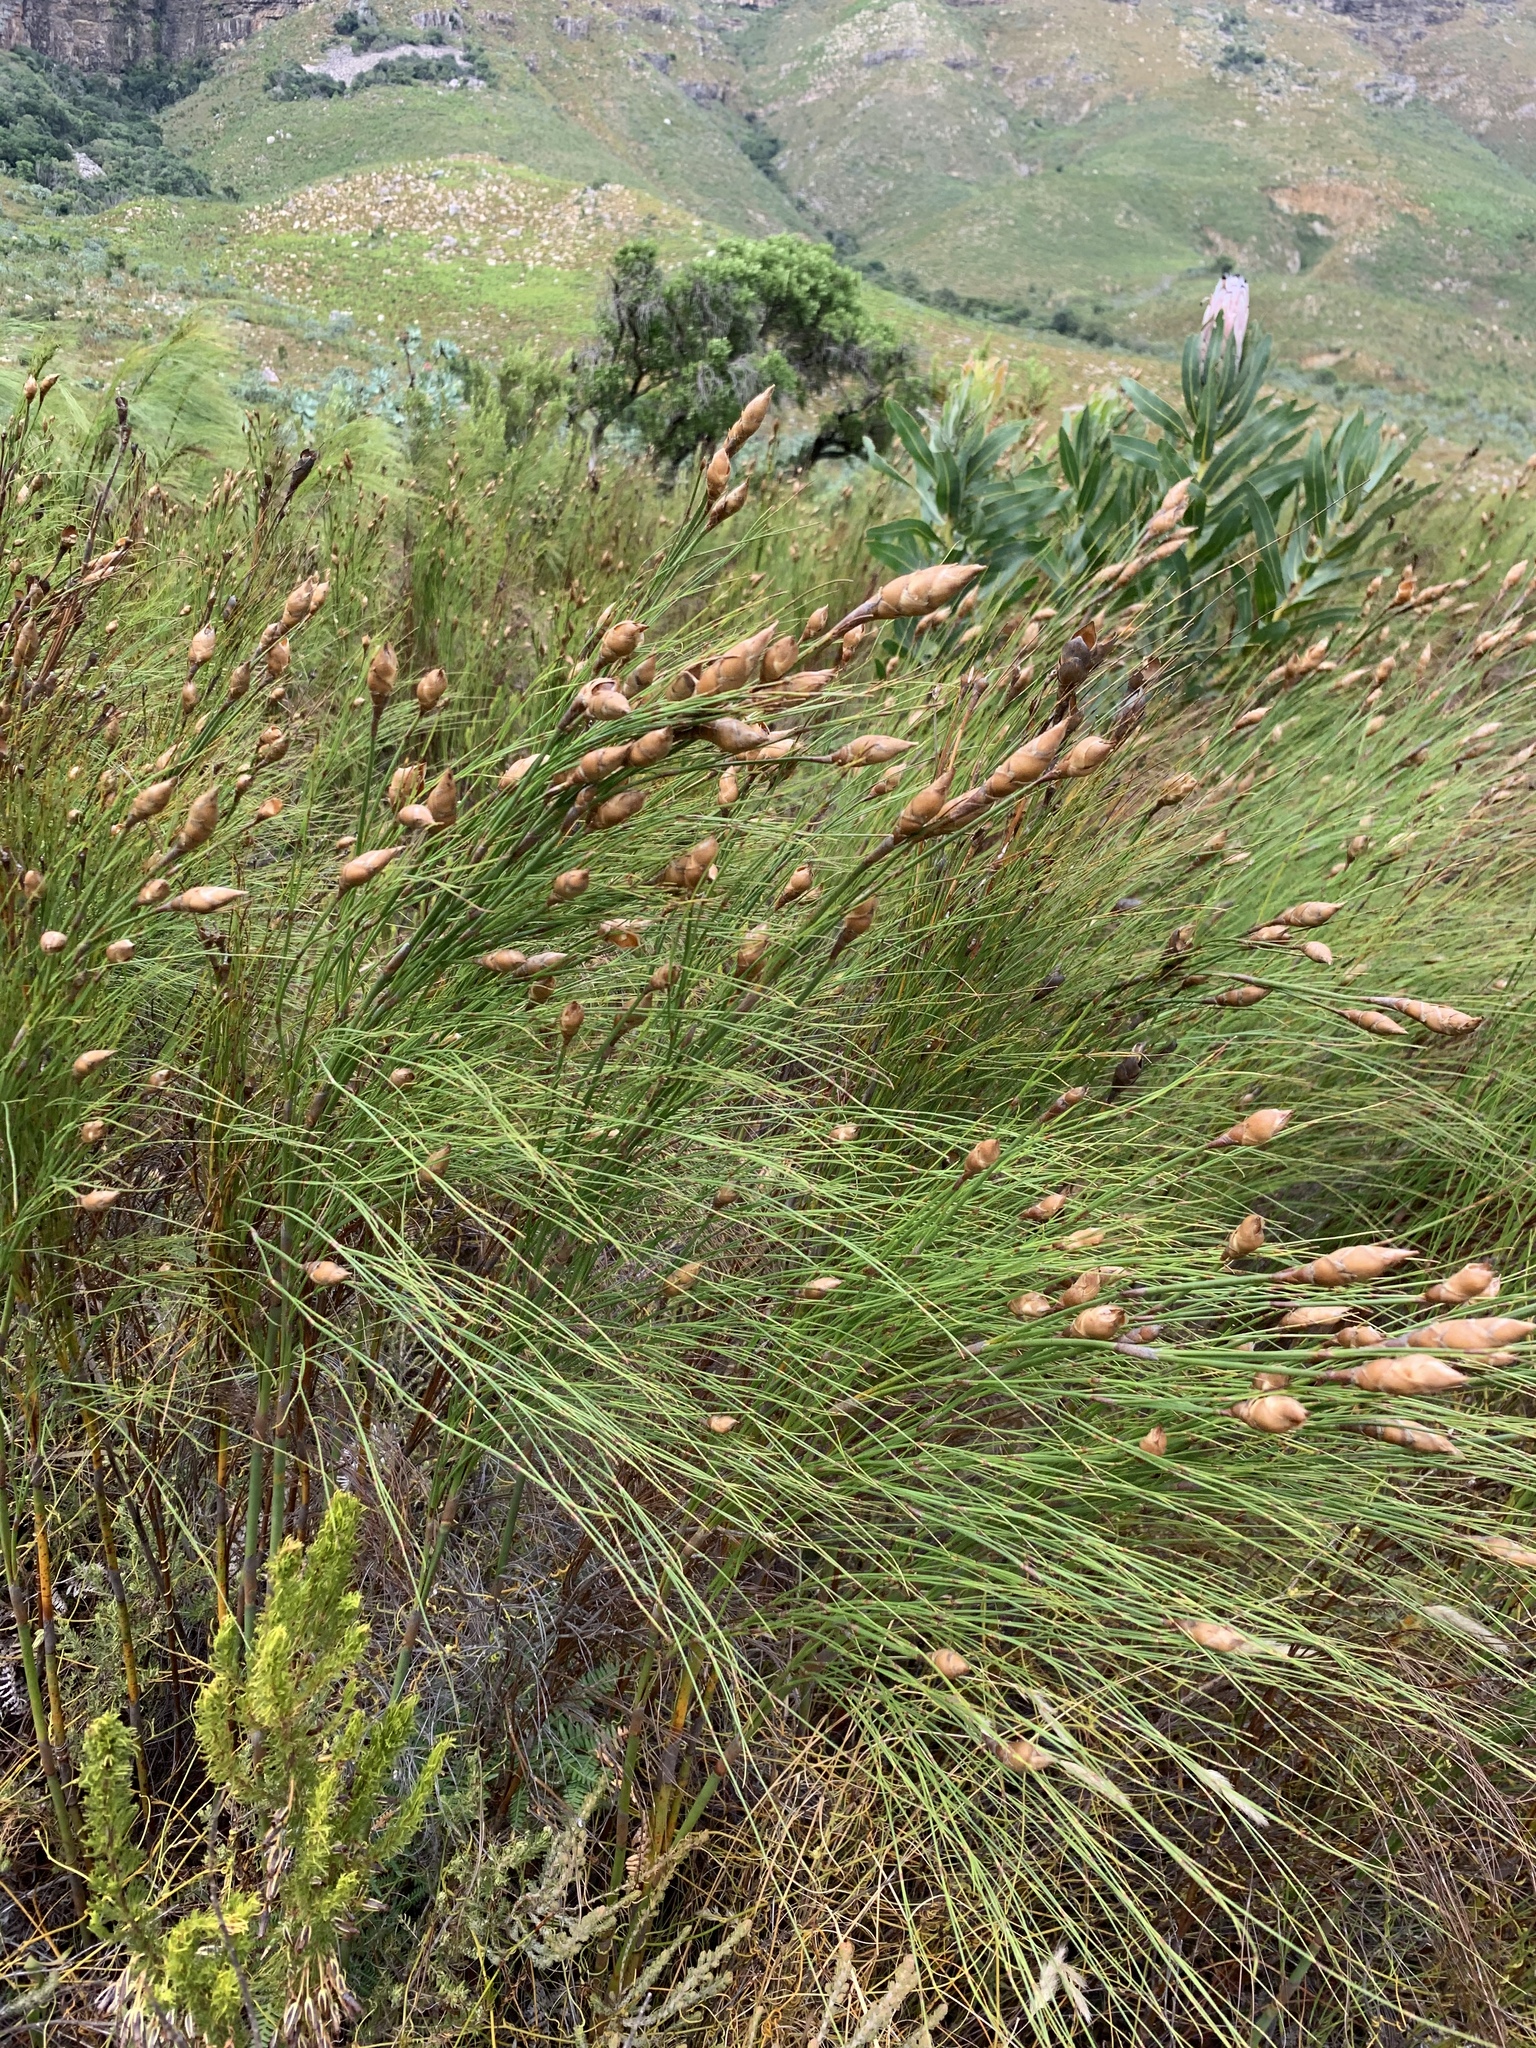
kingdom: Plantae
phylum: Tracheophyta
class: Liliopsida
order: Poales
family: Restionaceae
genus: Cannomois
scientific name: Cannomois virgata
